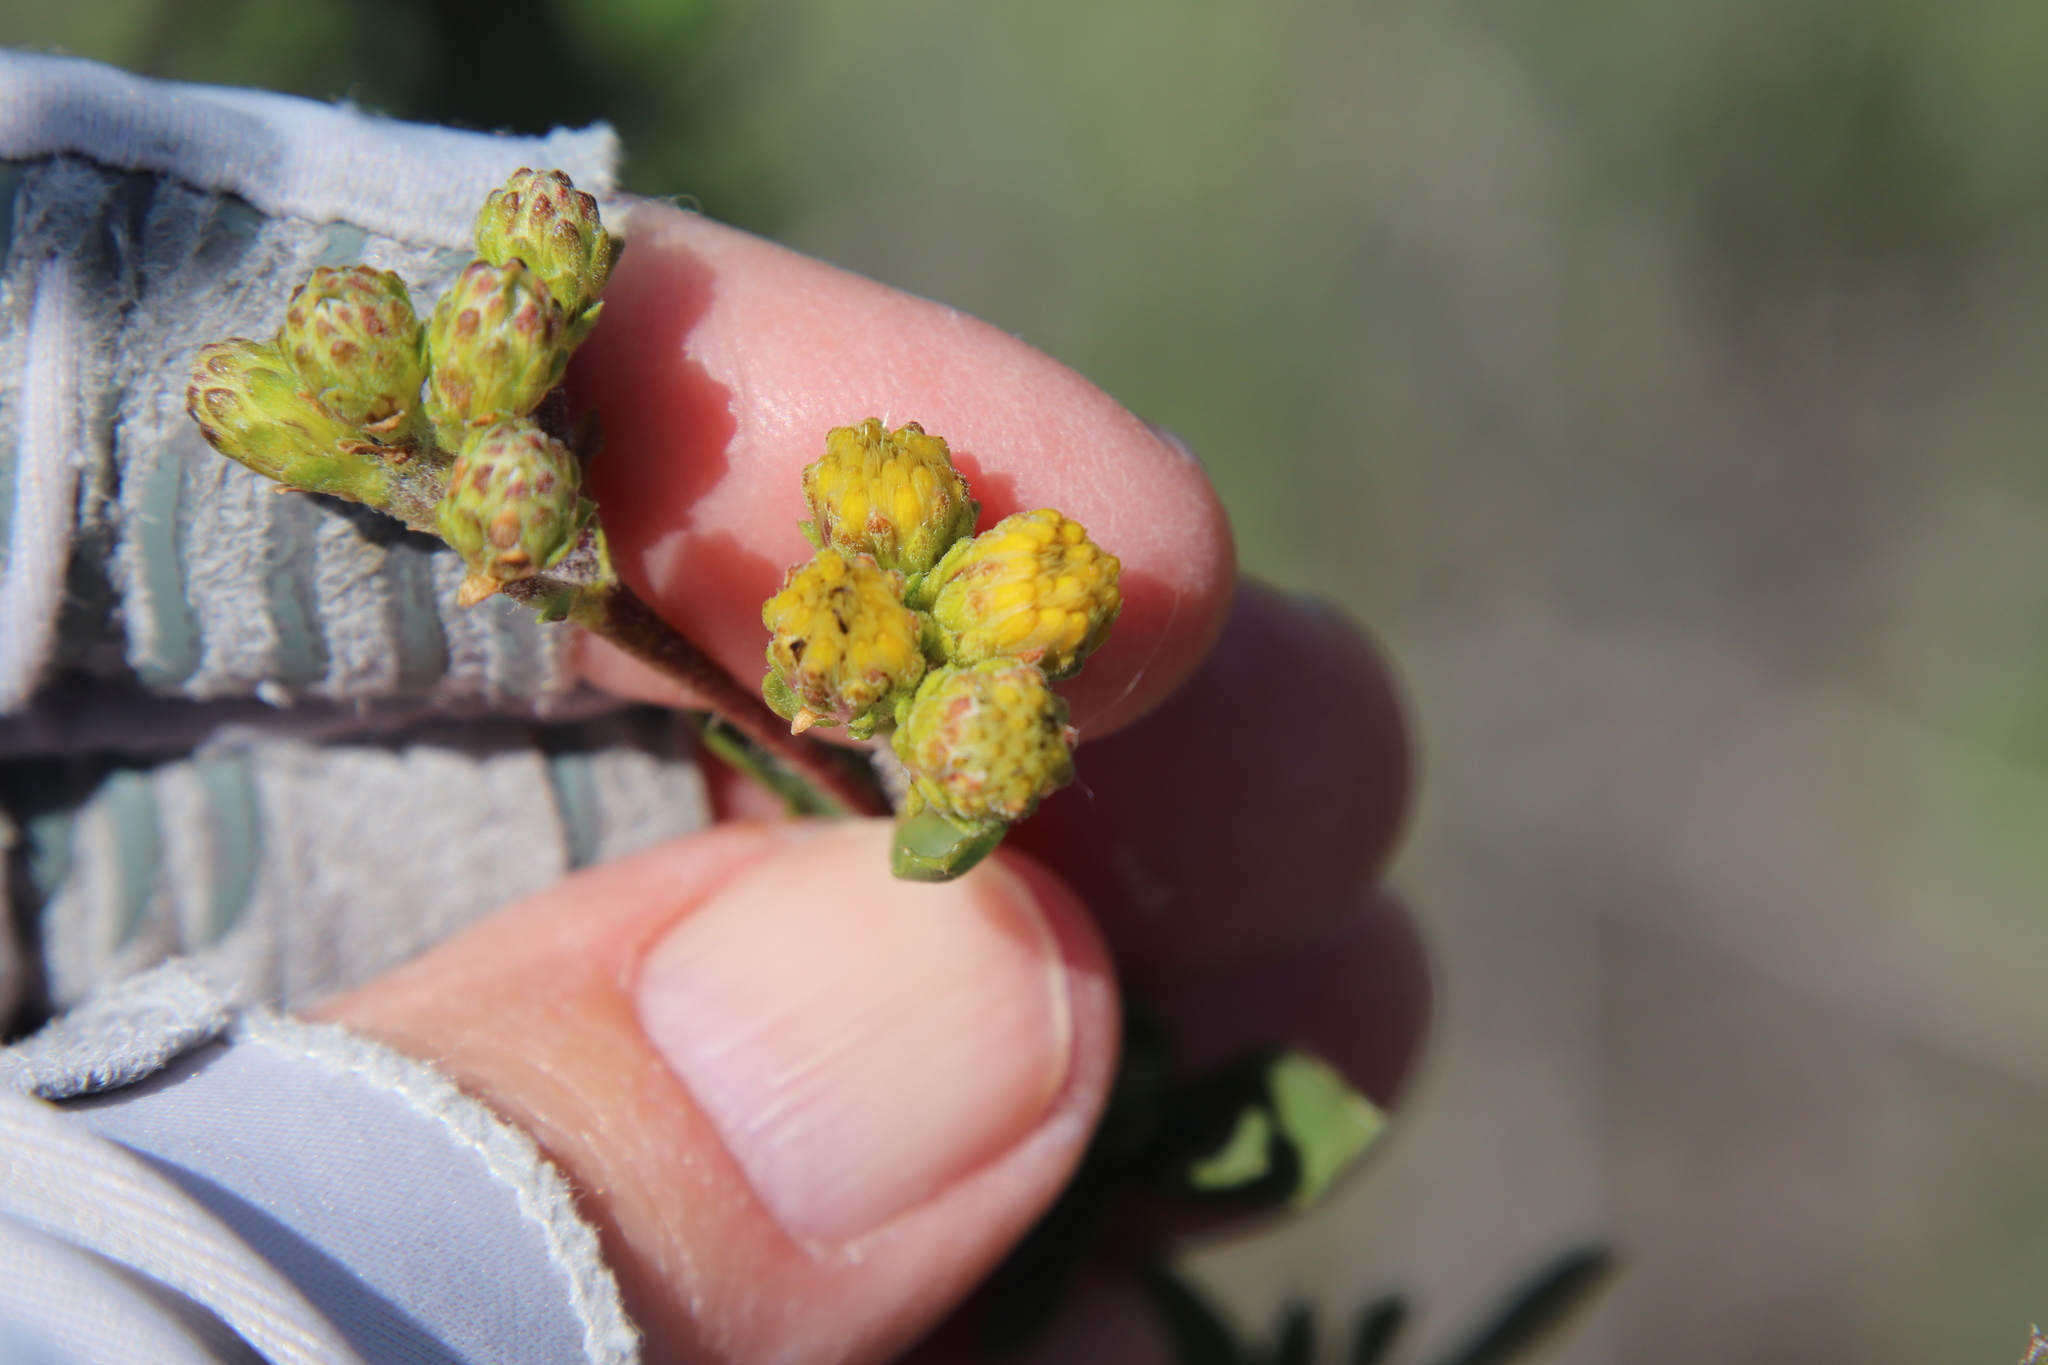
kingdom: Plantae
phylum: Tracheophyta
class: Magnoliopsida
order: Asterales
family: Asteraceae
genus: Isocoma
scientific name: Isocoma menziesii
